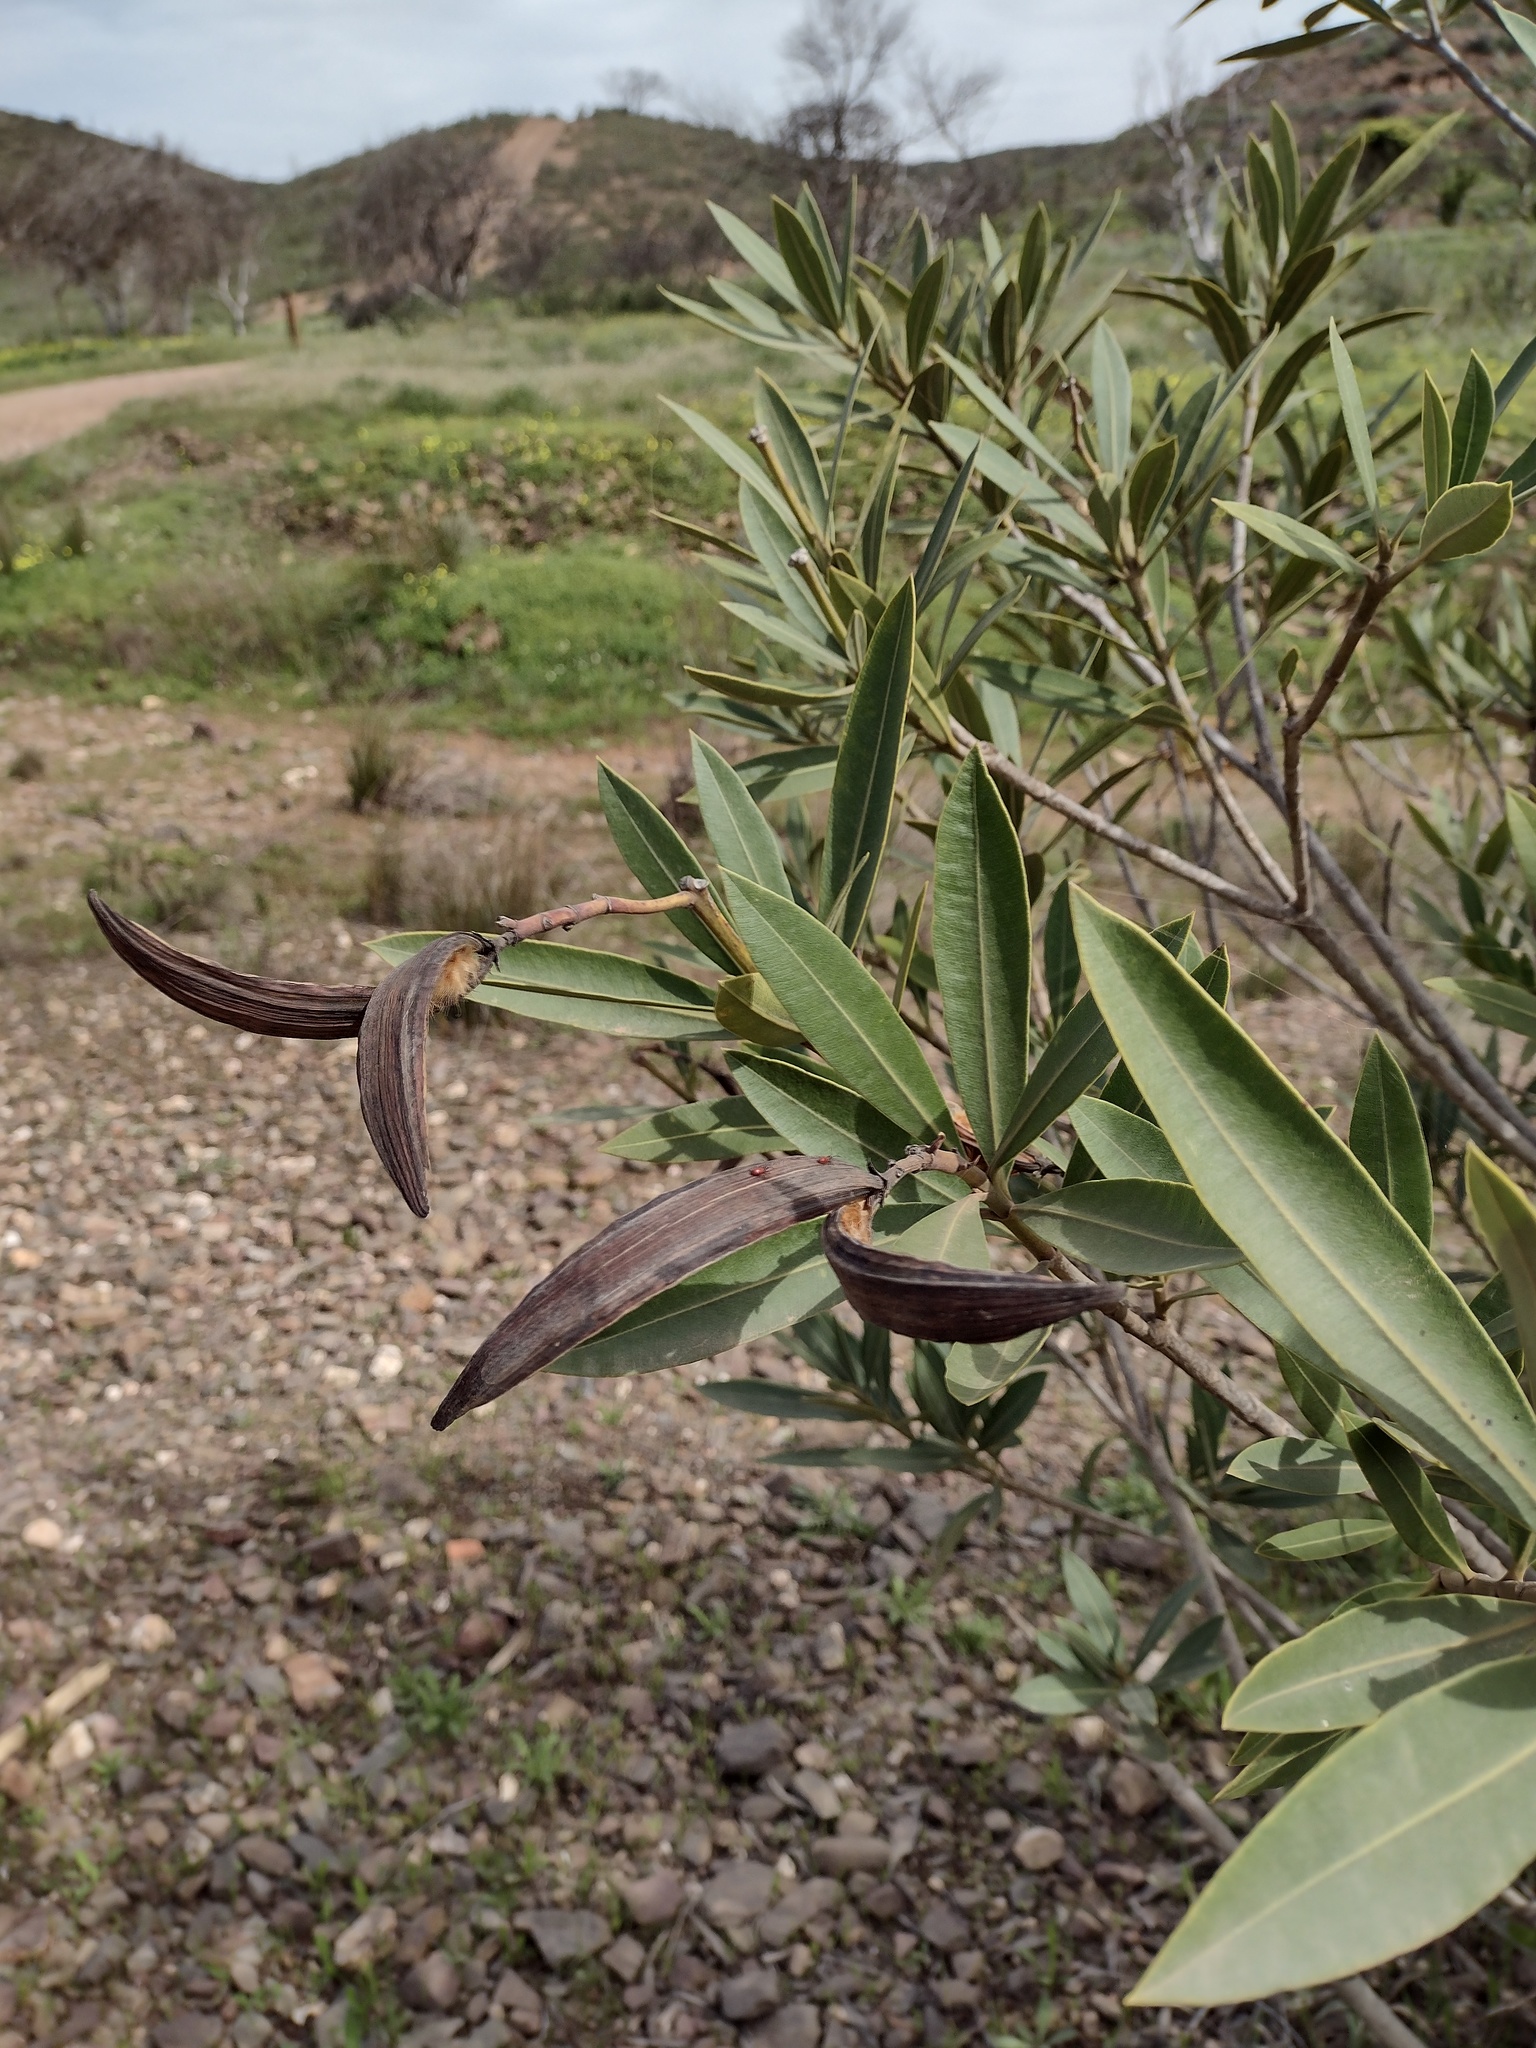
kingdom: Plantae
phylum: Tracheophyta
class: Magnoliopsida
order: Gentianales
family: Apocynaceae
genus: Nerium
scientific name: Nerium oleander
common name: Oleander
